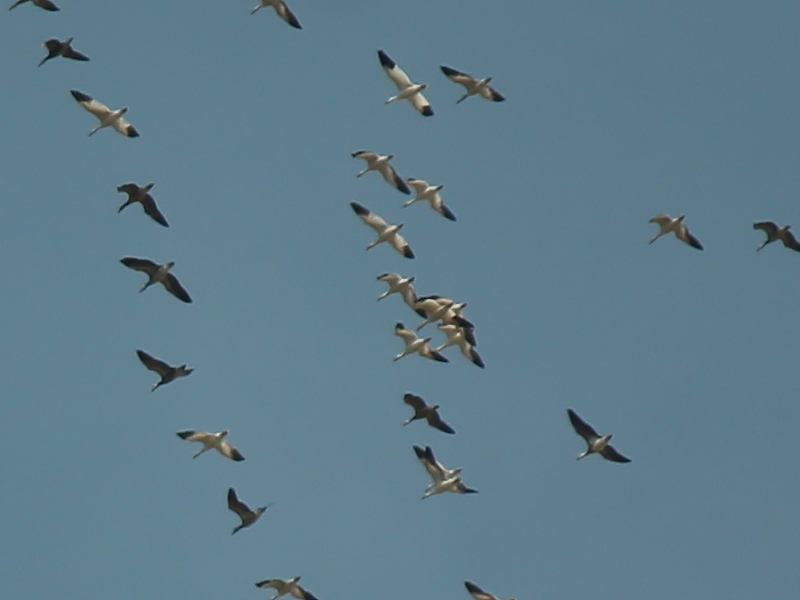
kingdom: Animalia
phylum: Chordata
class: Aves
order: Anseriformes
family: Anatidae
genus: Anser
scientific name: Anser caerulescens
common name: Snow goose
